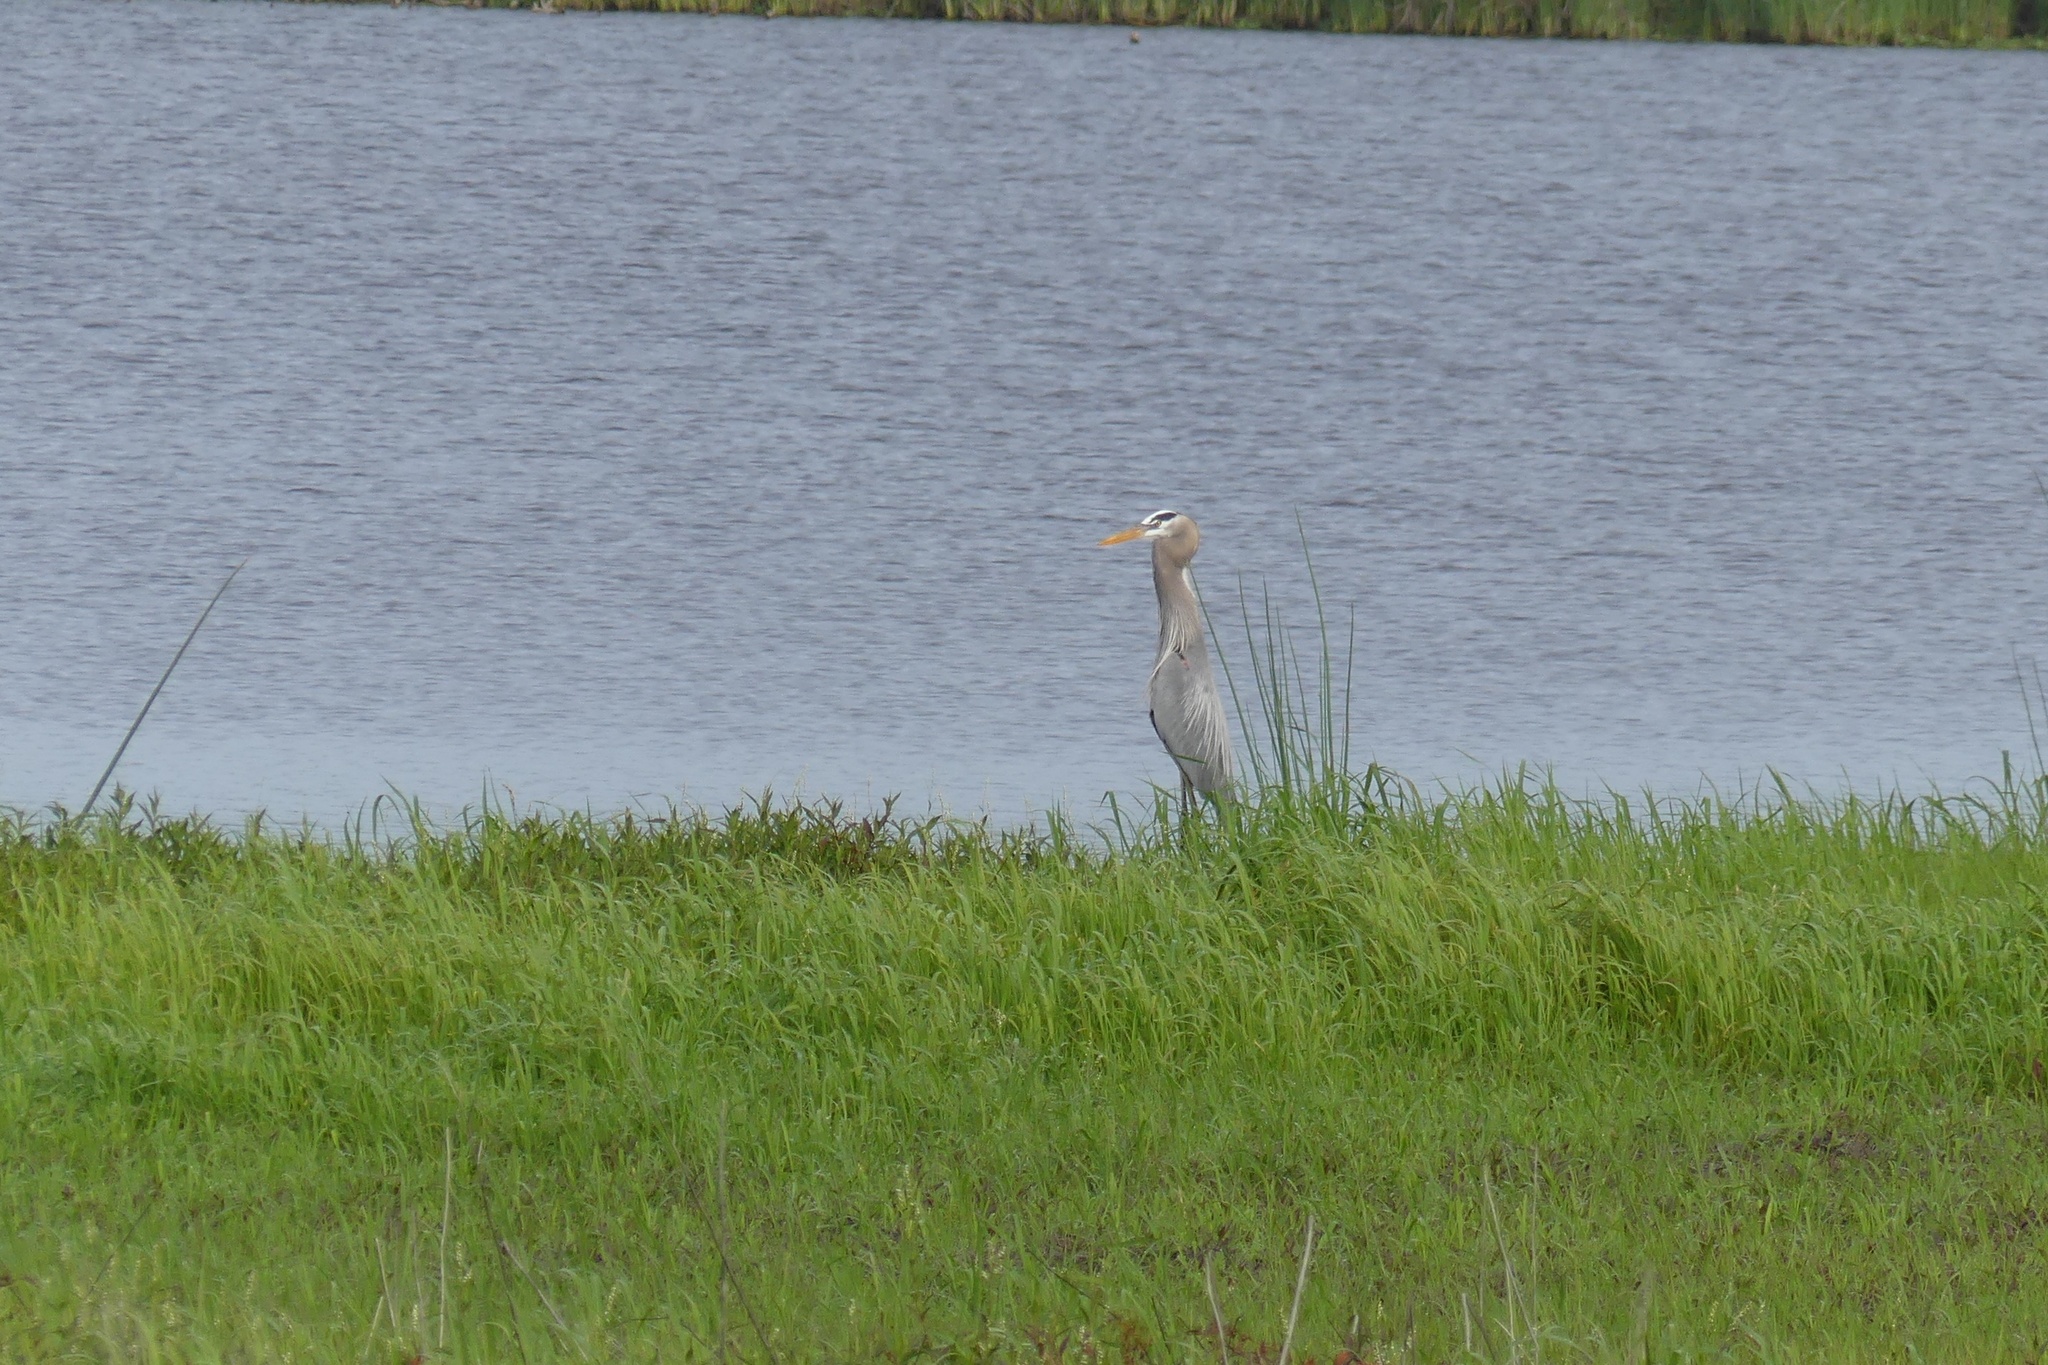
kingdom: Animalia
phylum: Chordata
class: Aves
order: Pelecaniformes
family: Ardeidae
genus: Ardea
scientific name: Ardea herodias
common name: Great blue heron
